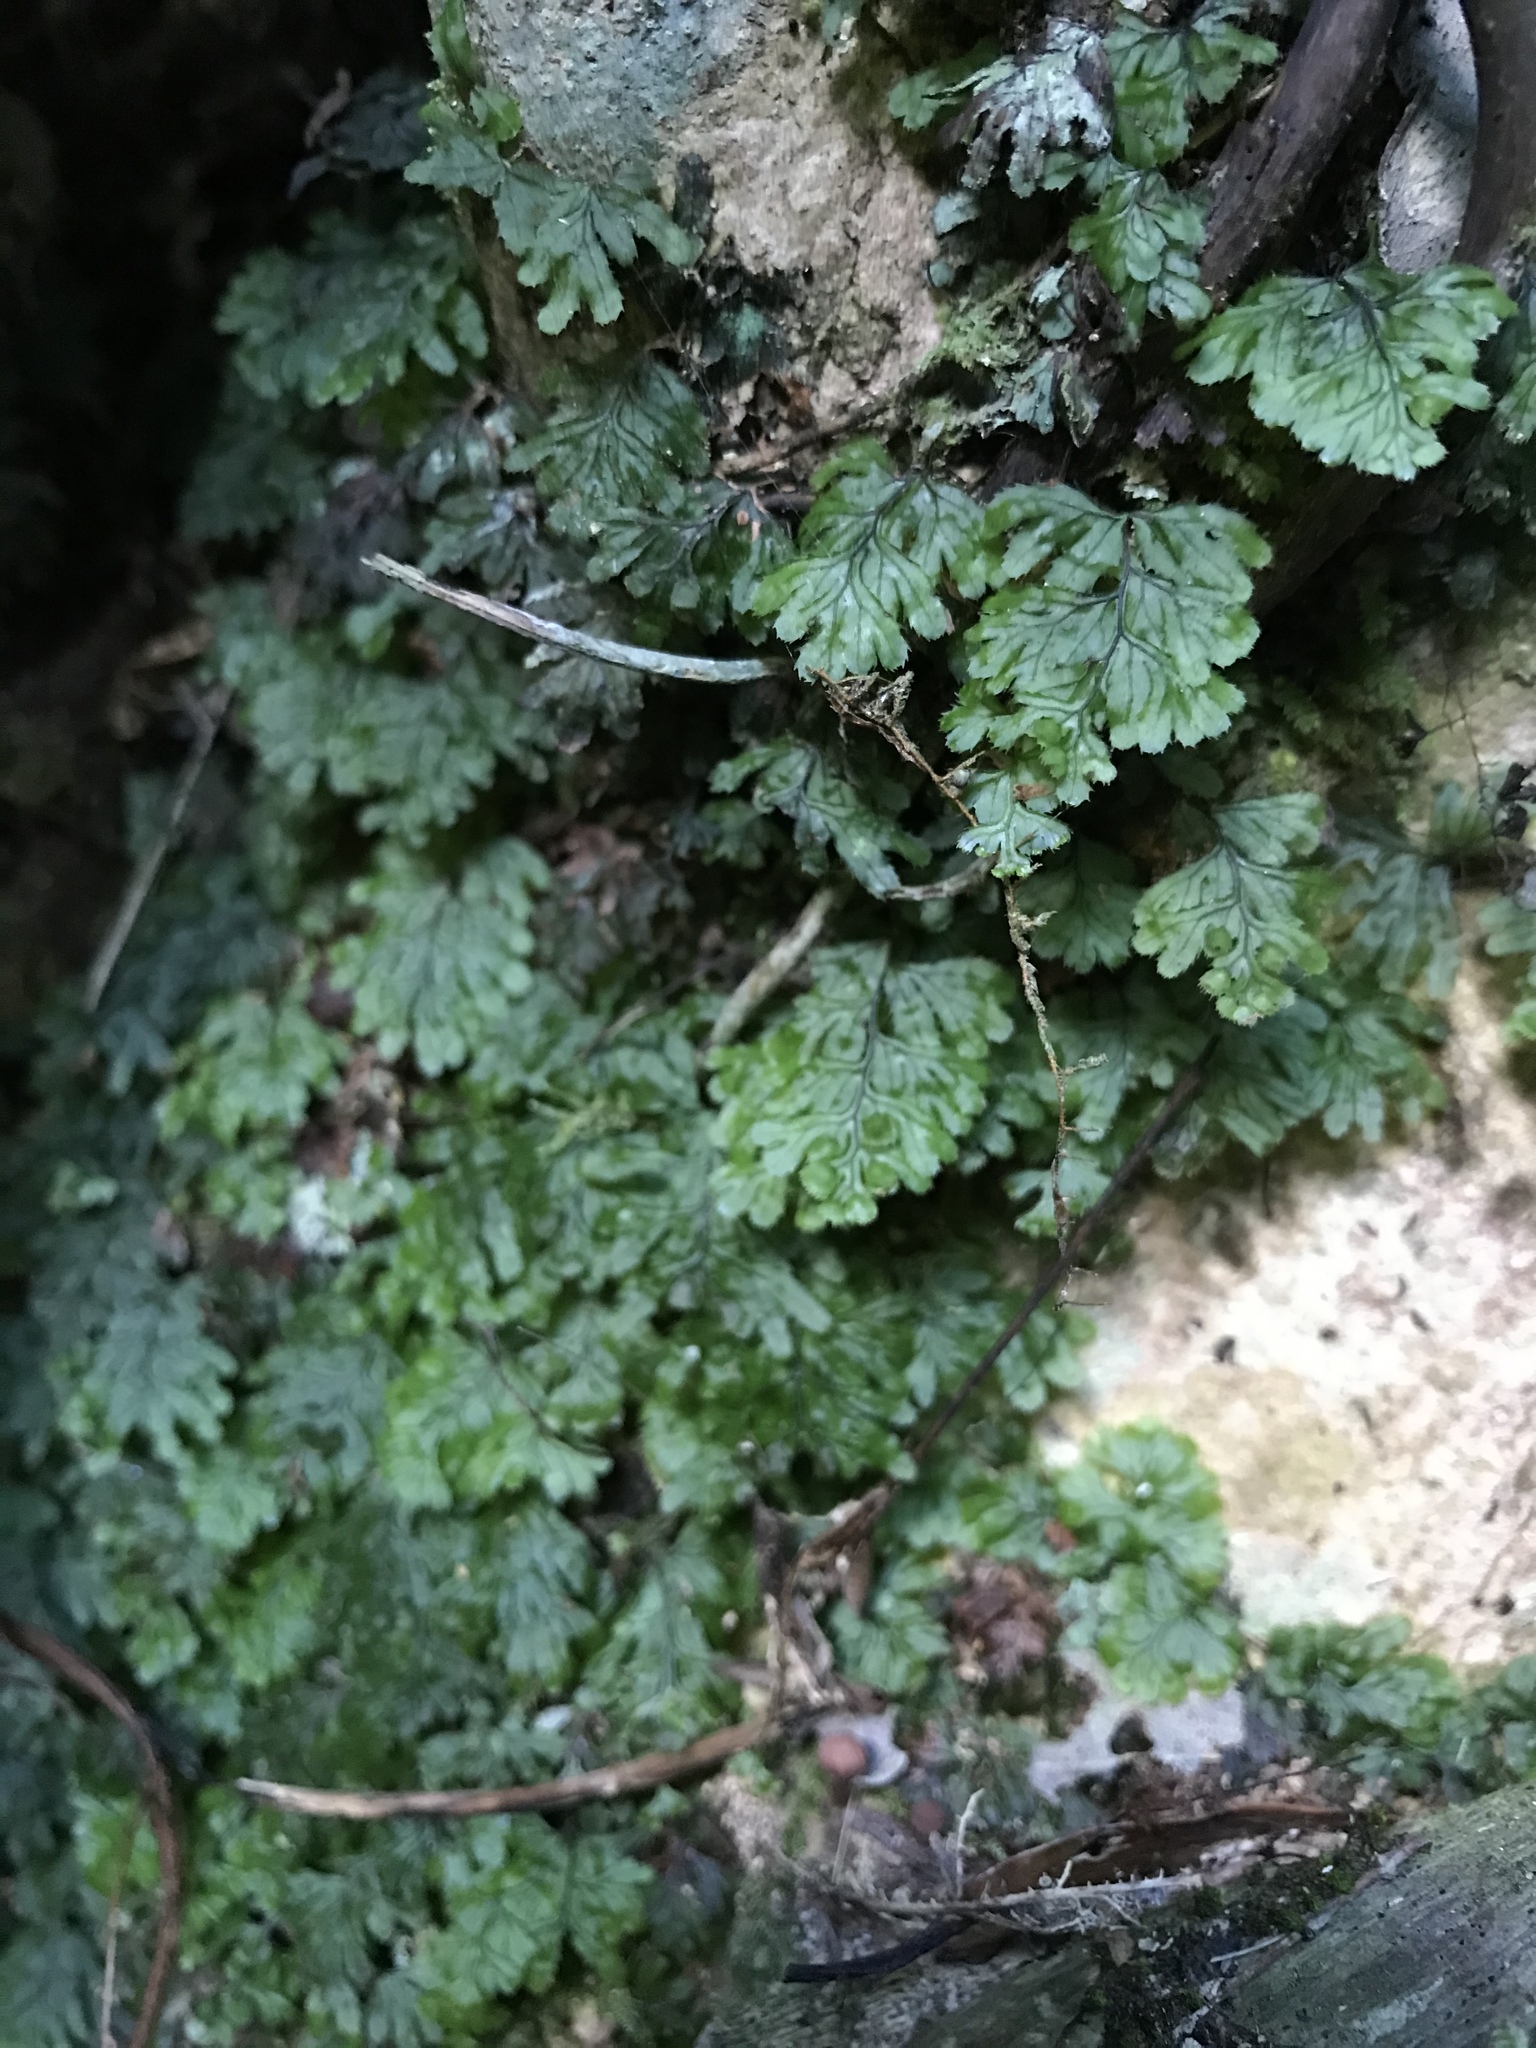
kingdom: Plantae
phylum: Tracheophyta
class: Polypodiopsida
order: Hymenophyllales
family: Hymenophyllaceae
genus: Hymenophyllum
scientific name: Hymenophyllum revolutum
